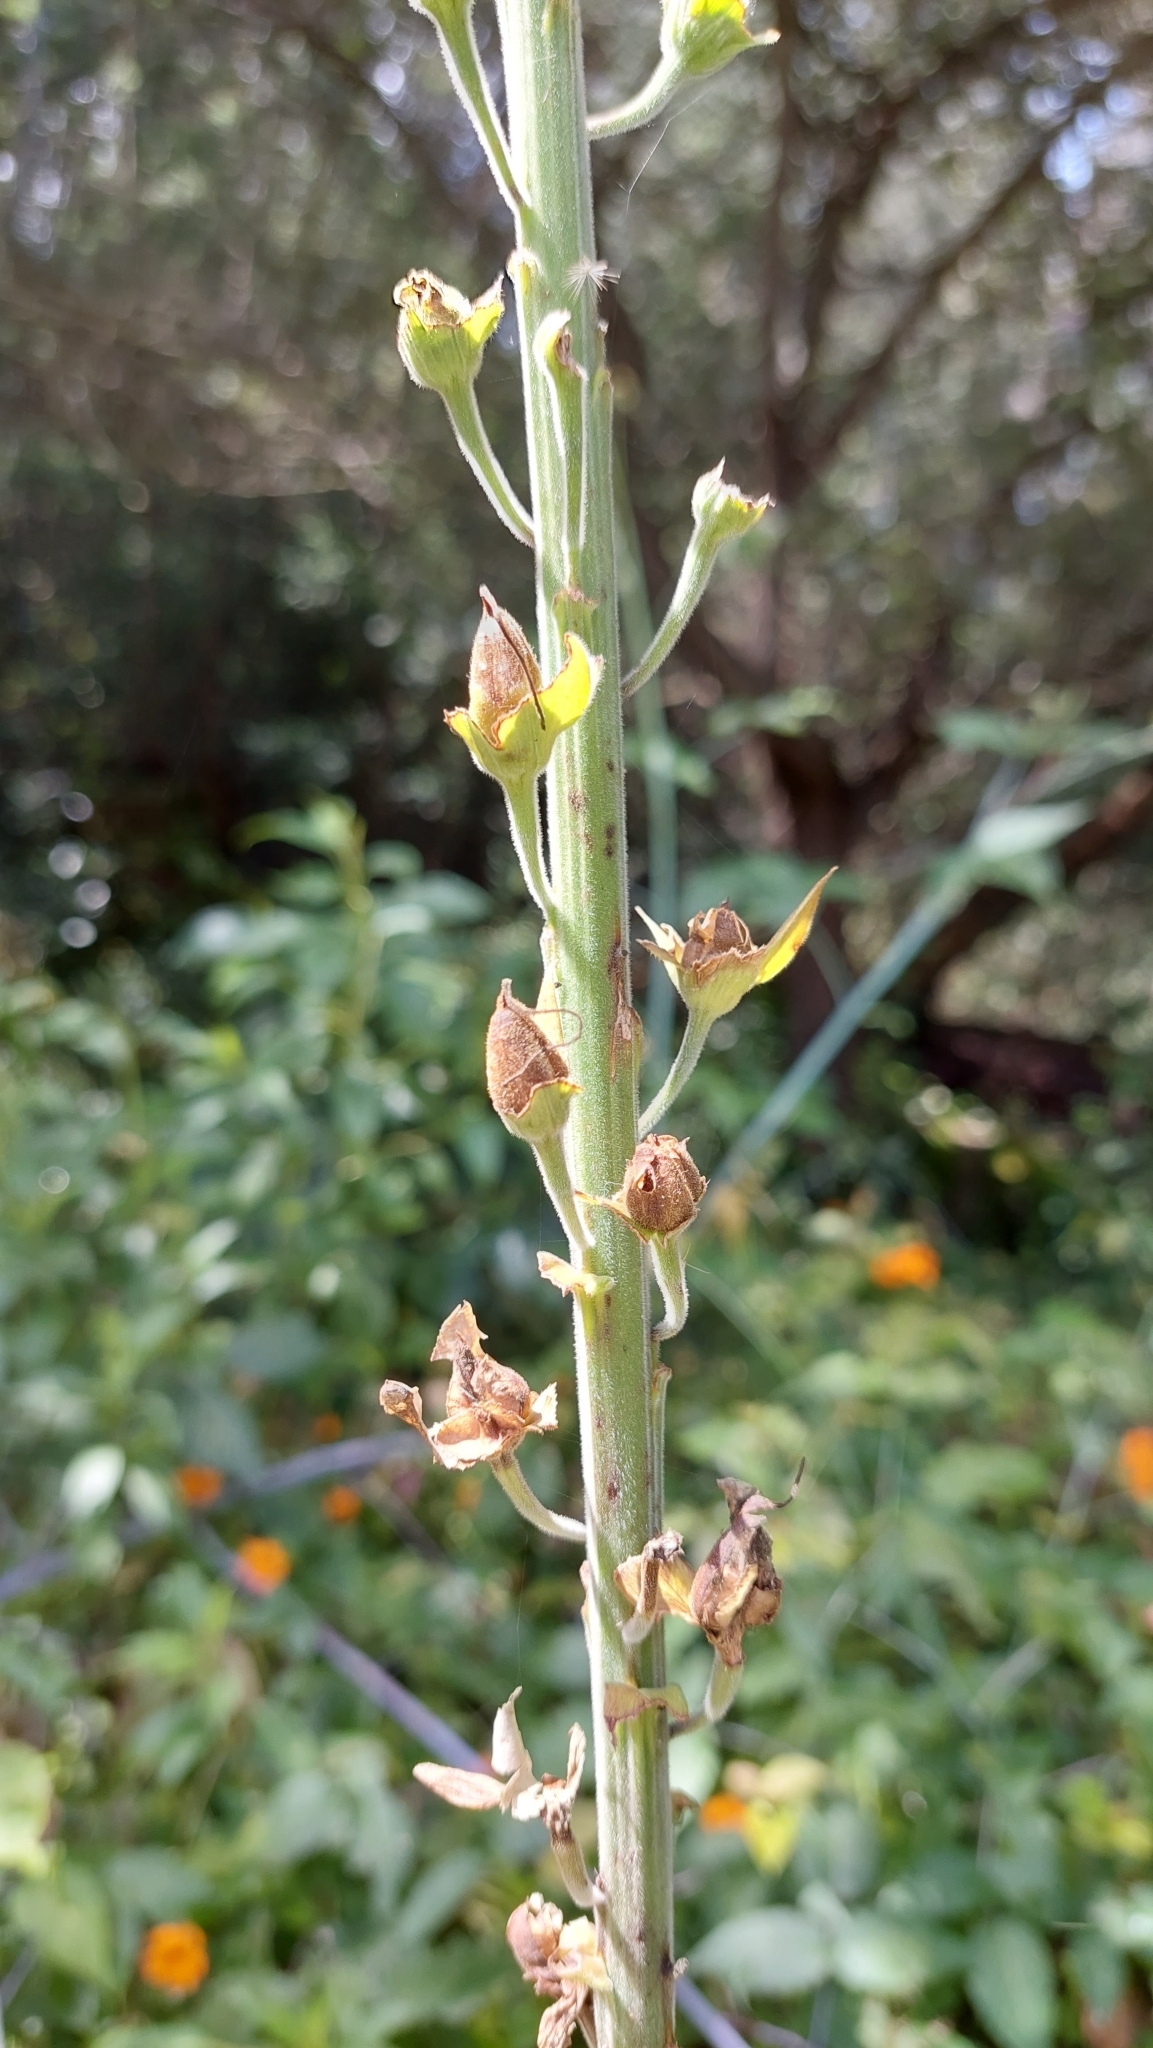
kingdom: Plantae
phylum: Tracheophyta
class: Magnoliopsida
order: Lamiales
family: Plantaginaceae
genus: Digitalis
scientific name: Digitalis purpurea
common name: Foxglove
